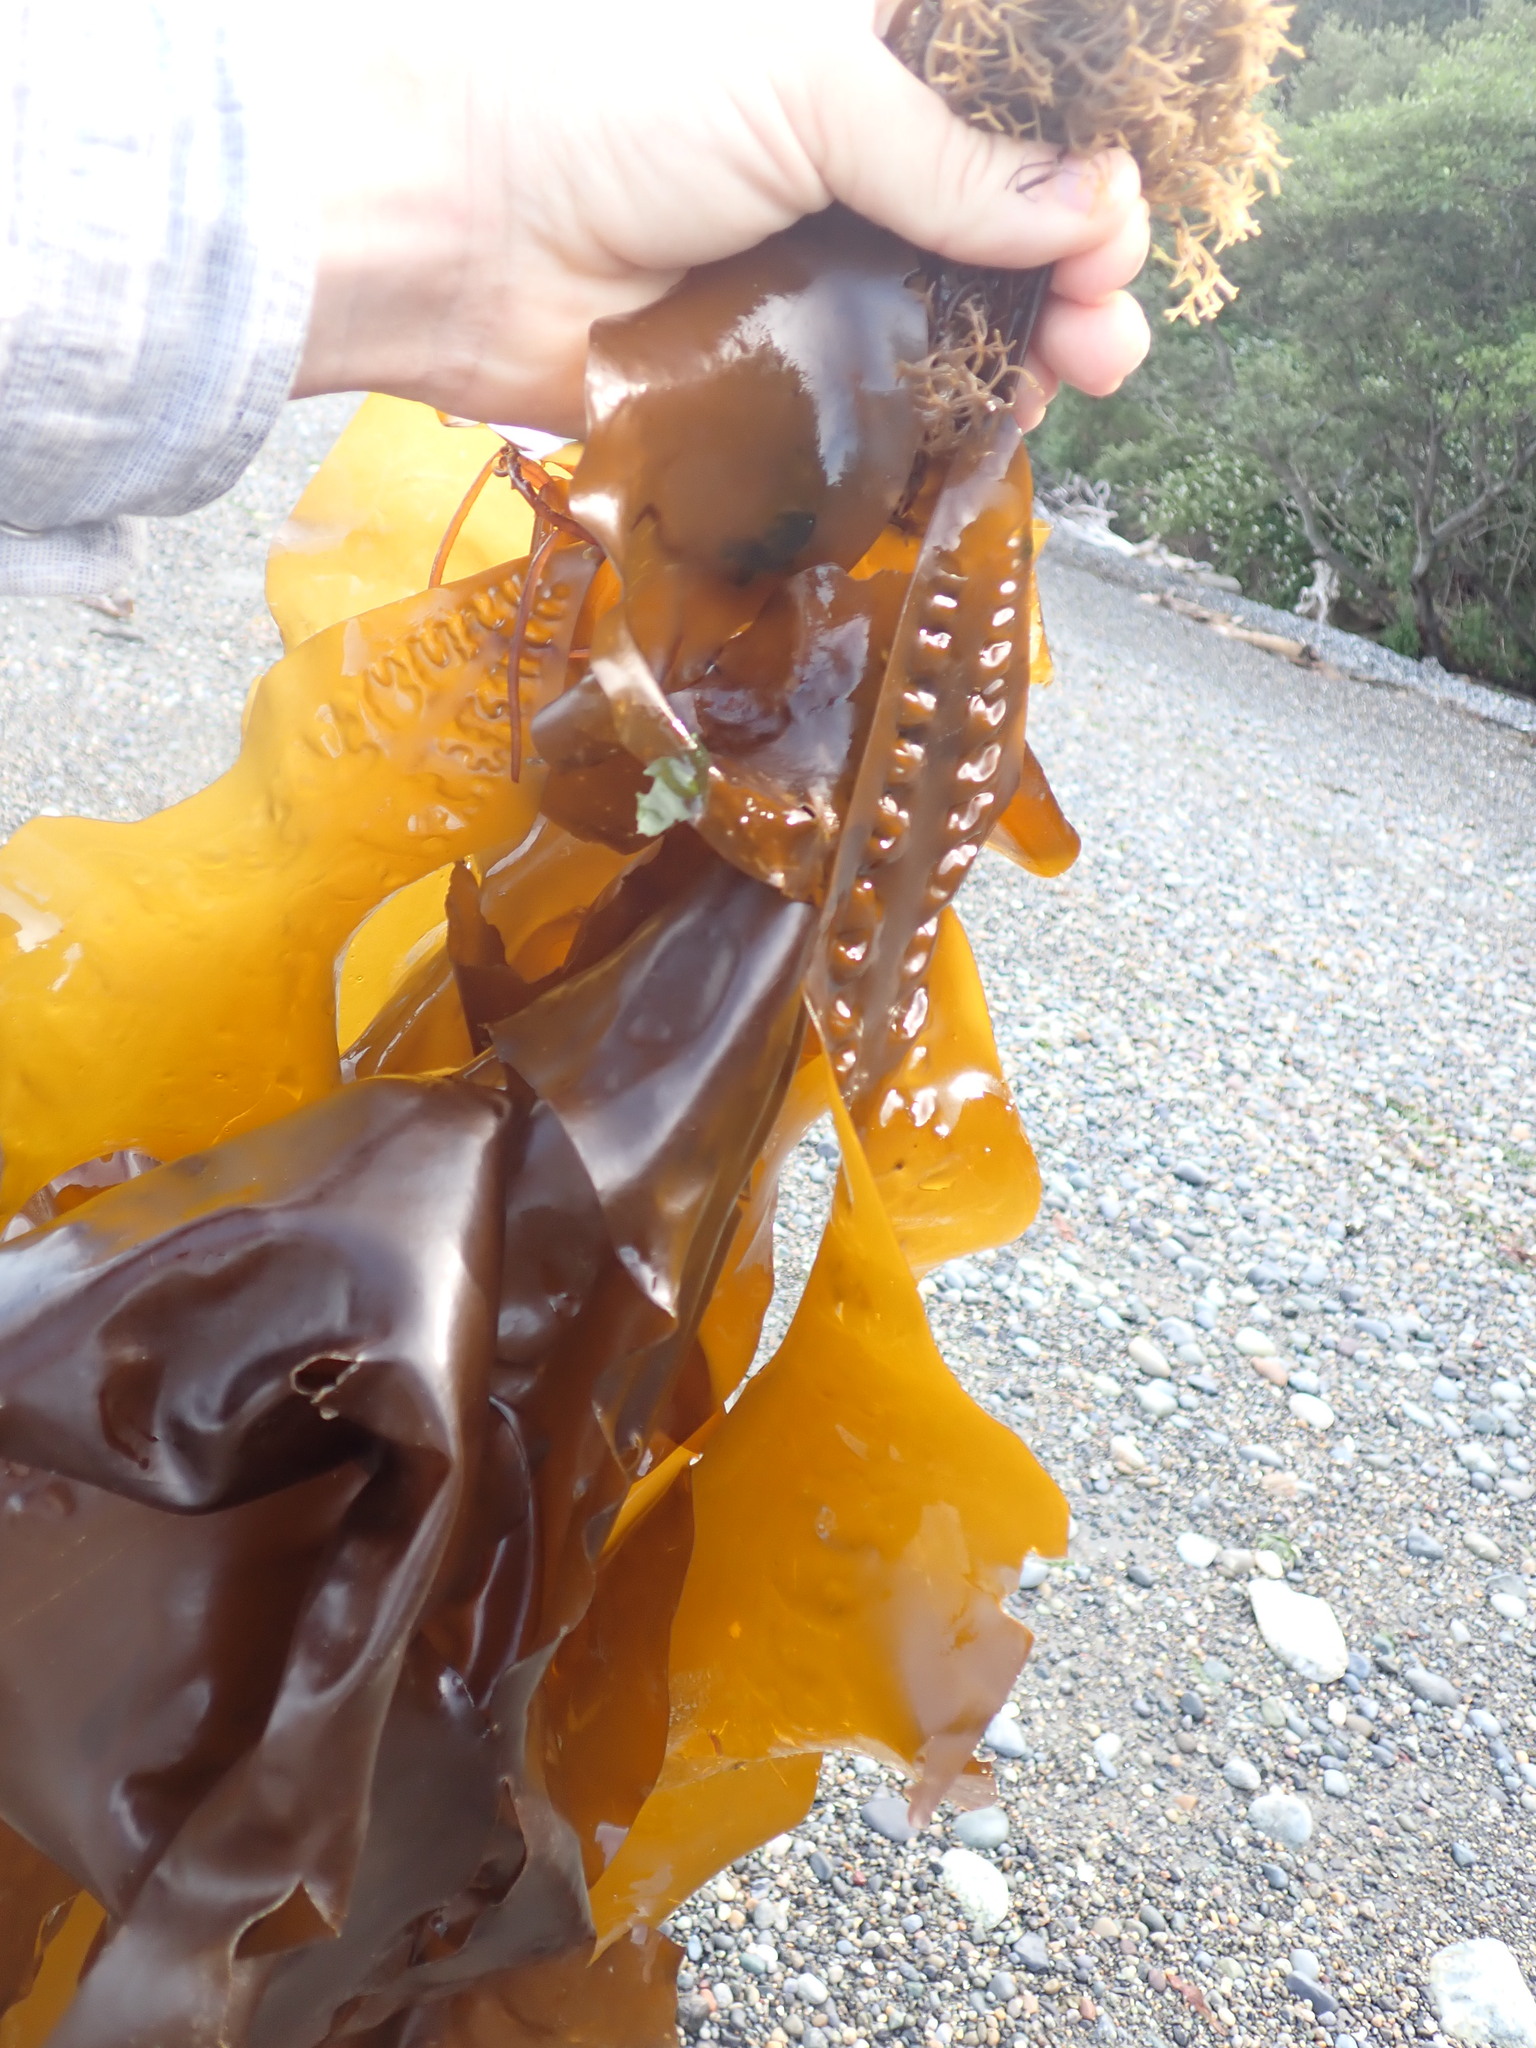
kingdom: Chromista
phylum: Ochrophyta
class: Phaeophyceae
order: Laminariales
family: Laminariaceae
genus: Saccharina
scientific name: Saccharina latissima
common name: Poor man's weather glass
